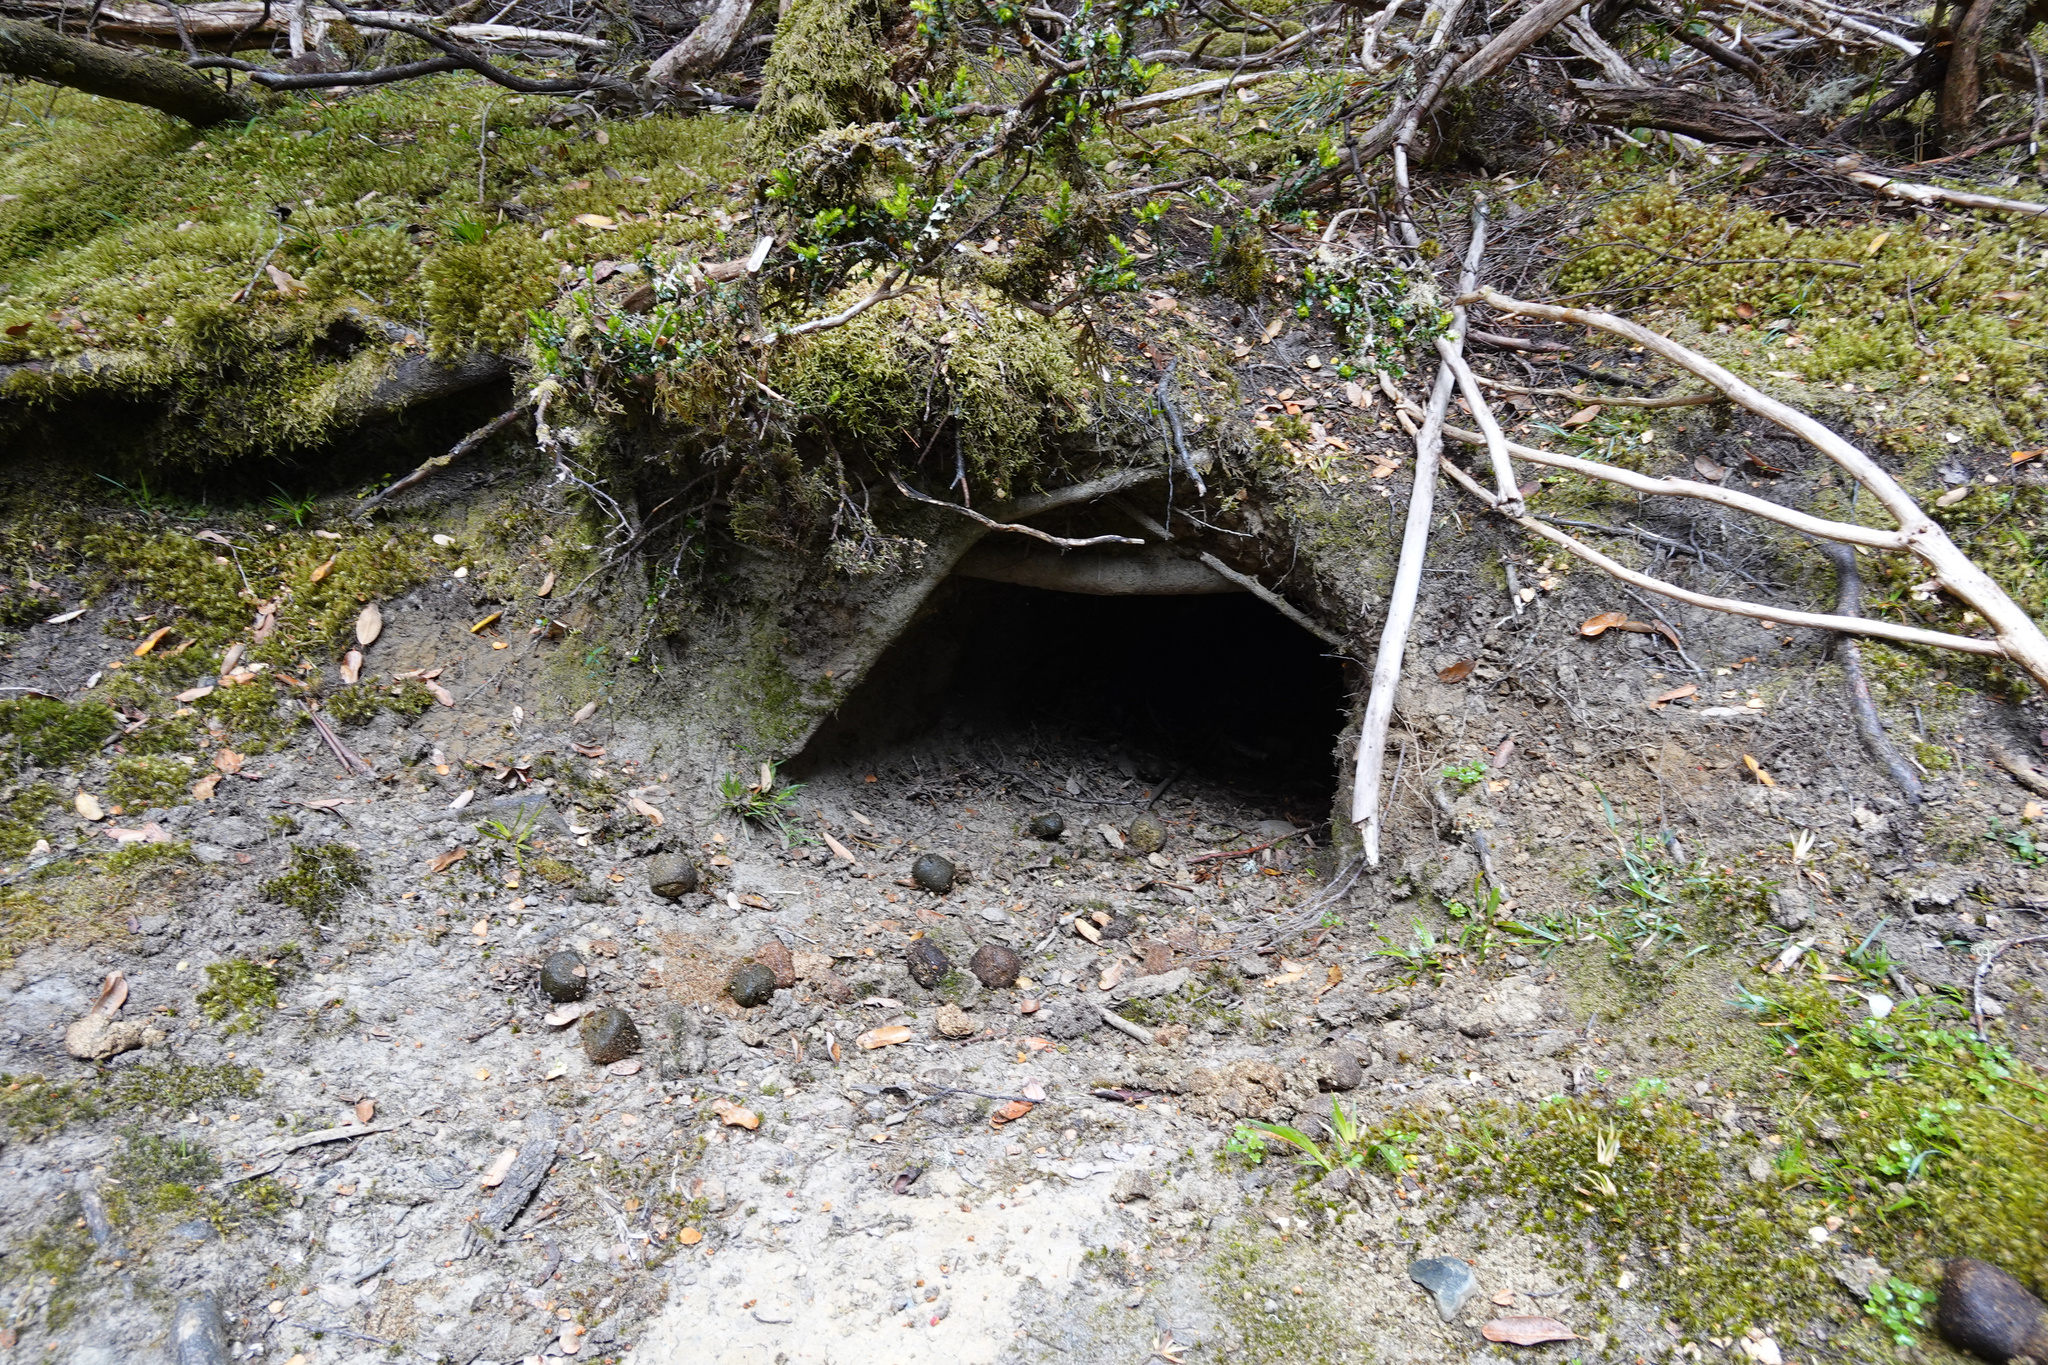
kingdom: Animalia
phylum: Chordata
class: Mammalia
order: Diprotodontia
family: Vombatidae
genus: Vombatus
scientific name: Vombatus ursinus
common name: Common wombat
